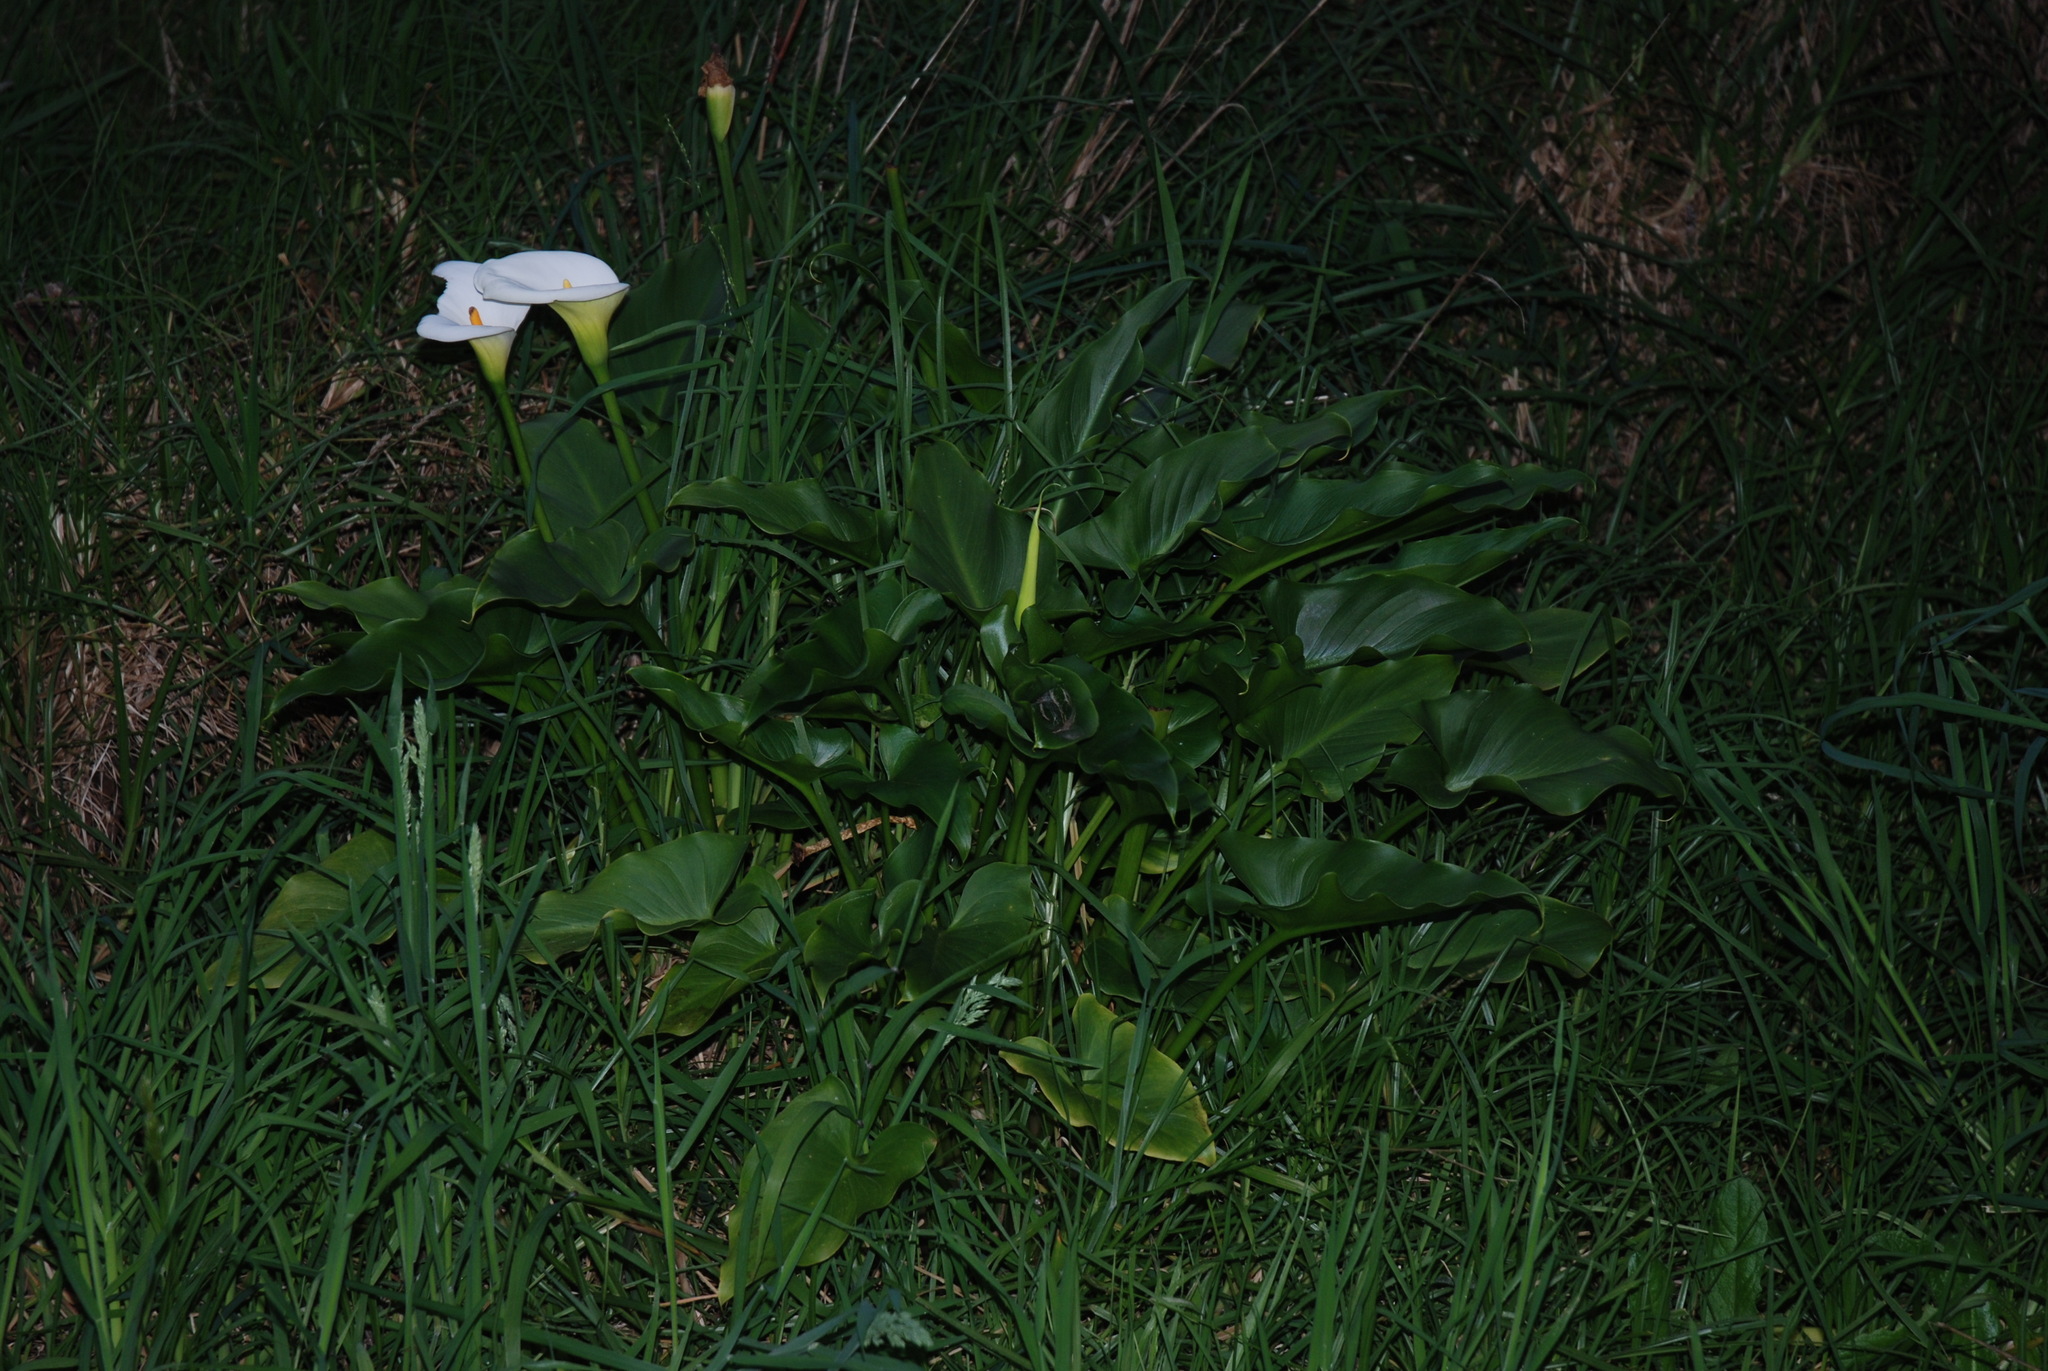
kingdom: Plantae
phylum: Tracheophyta
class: Liliopsida
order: Alismatales
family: Araceae
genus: Zantedeschia
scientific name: Zantedeschia aethiopica
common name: Altar-lily
